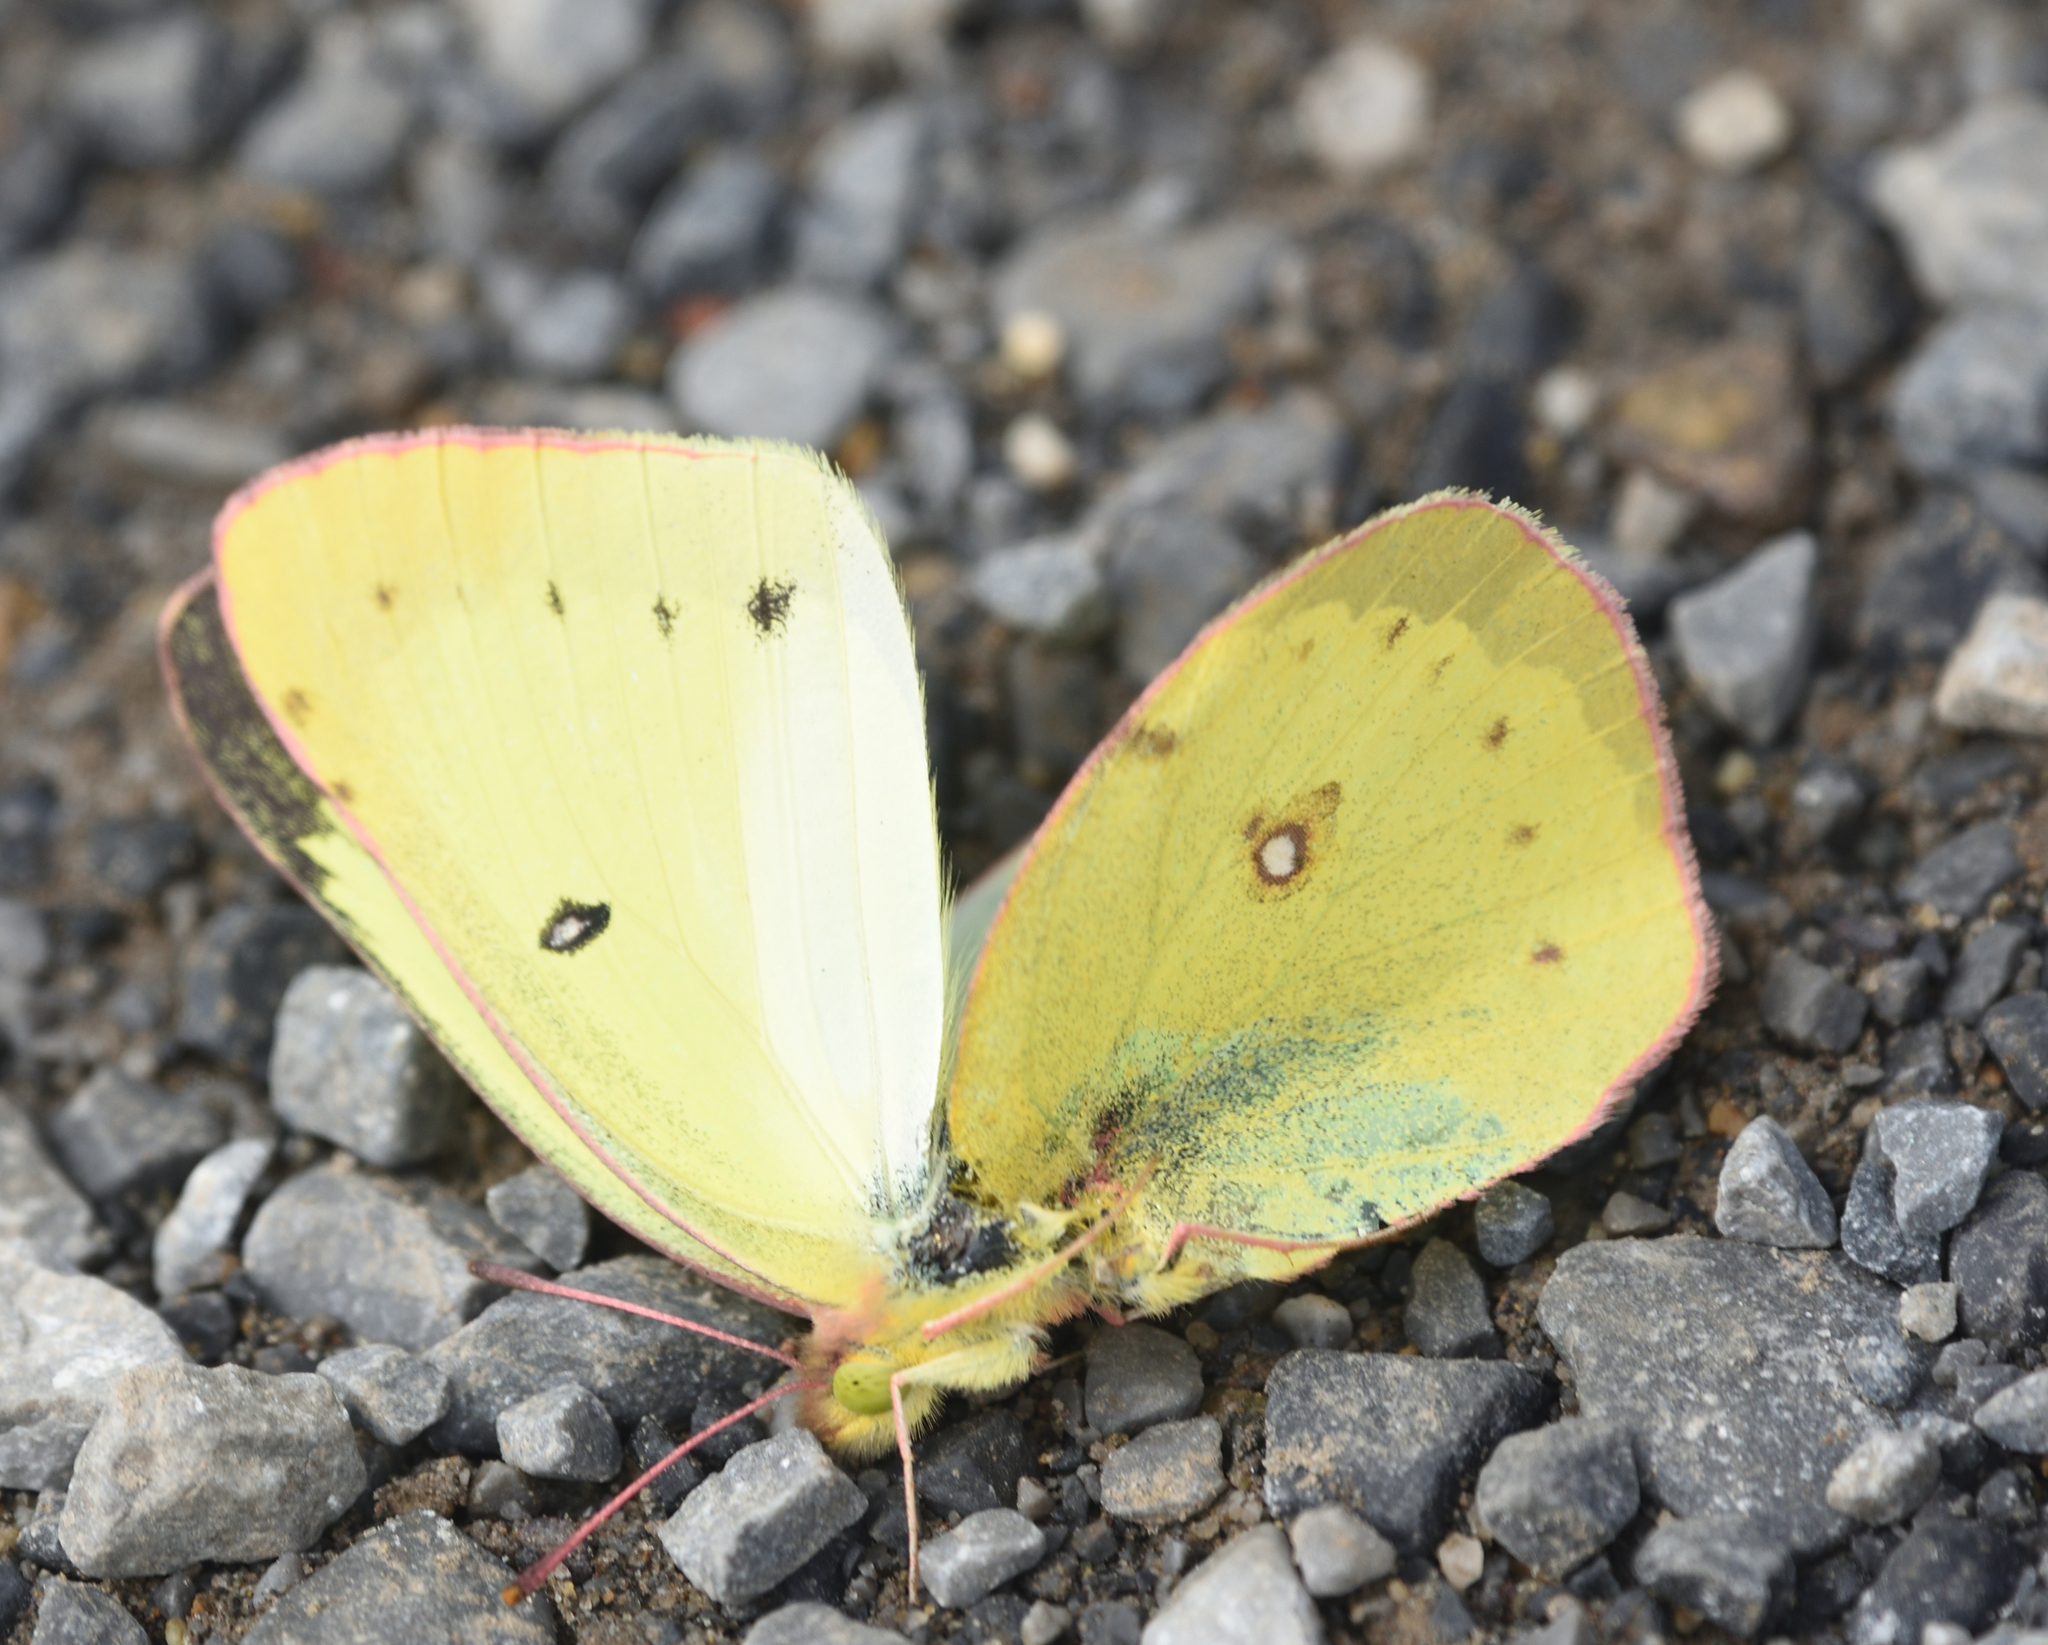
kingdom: Animalia
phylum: Arthropoda
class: Insecta
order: Lepidoptera
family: Pieridae
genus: Colias
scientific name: Colias philodice
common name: Clouded sulphur
